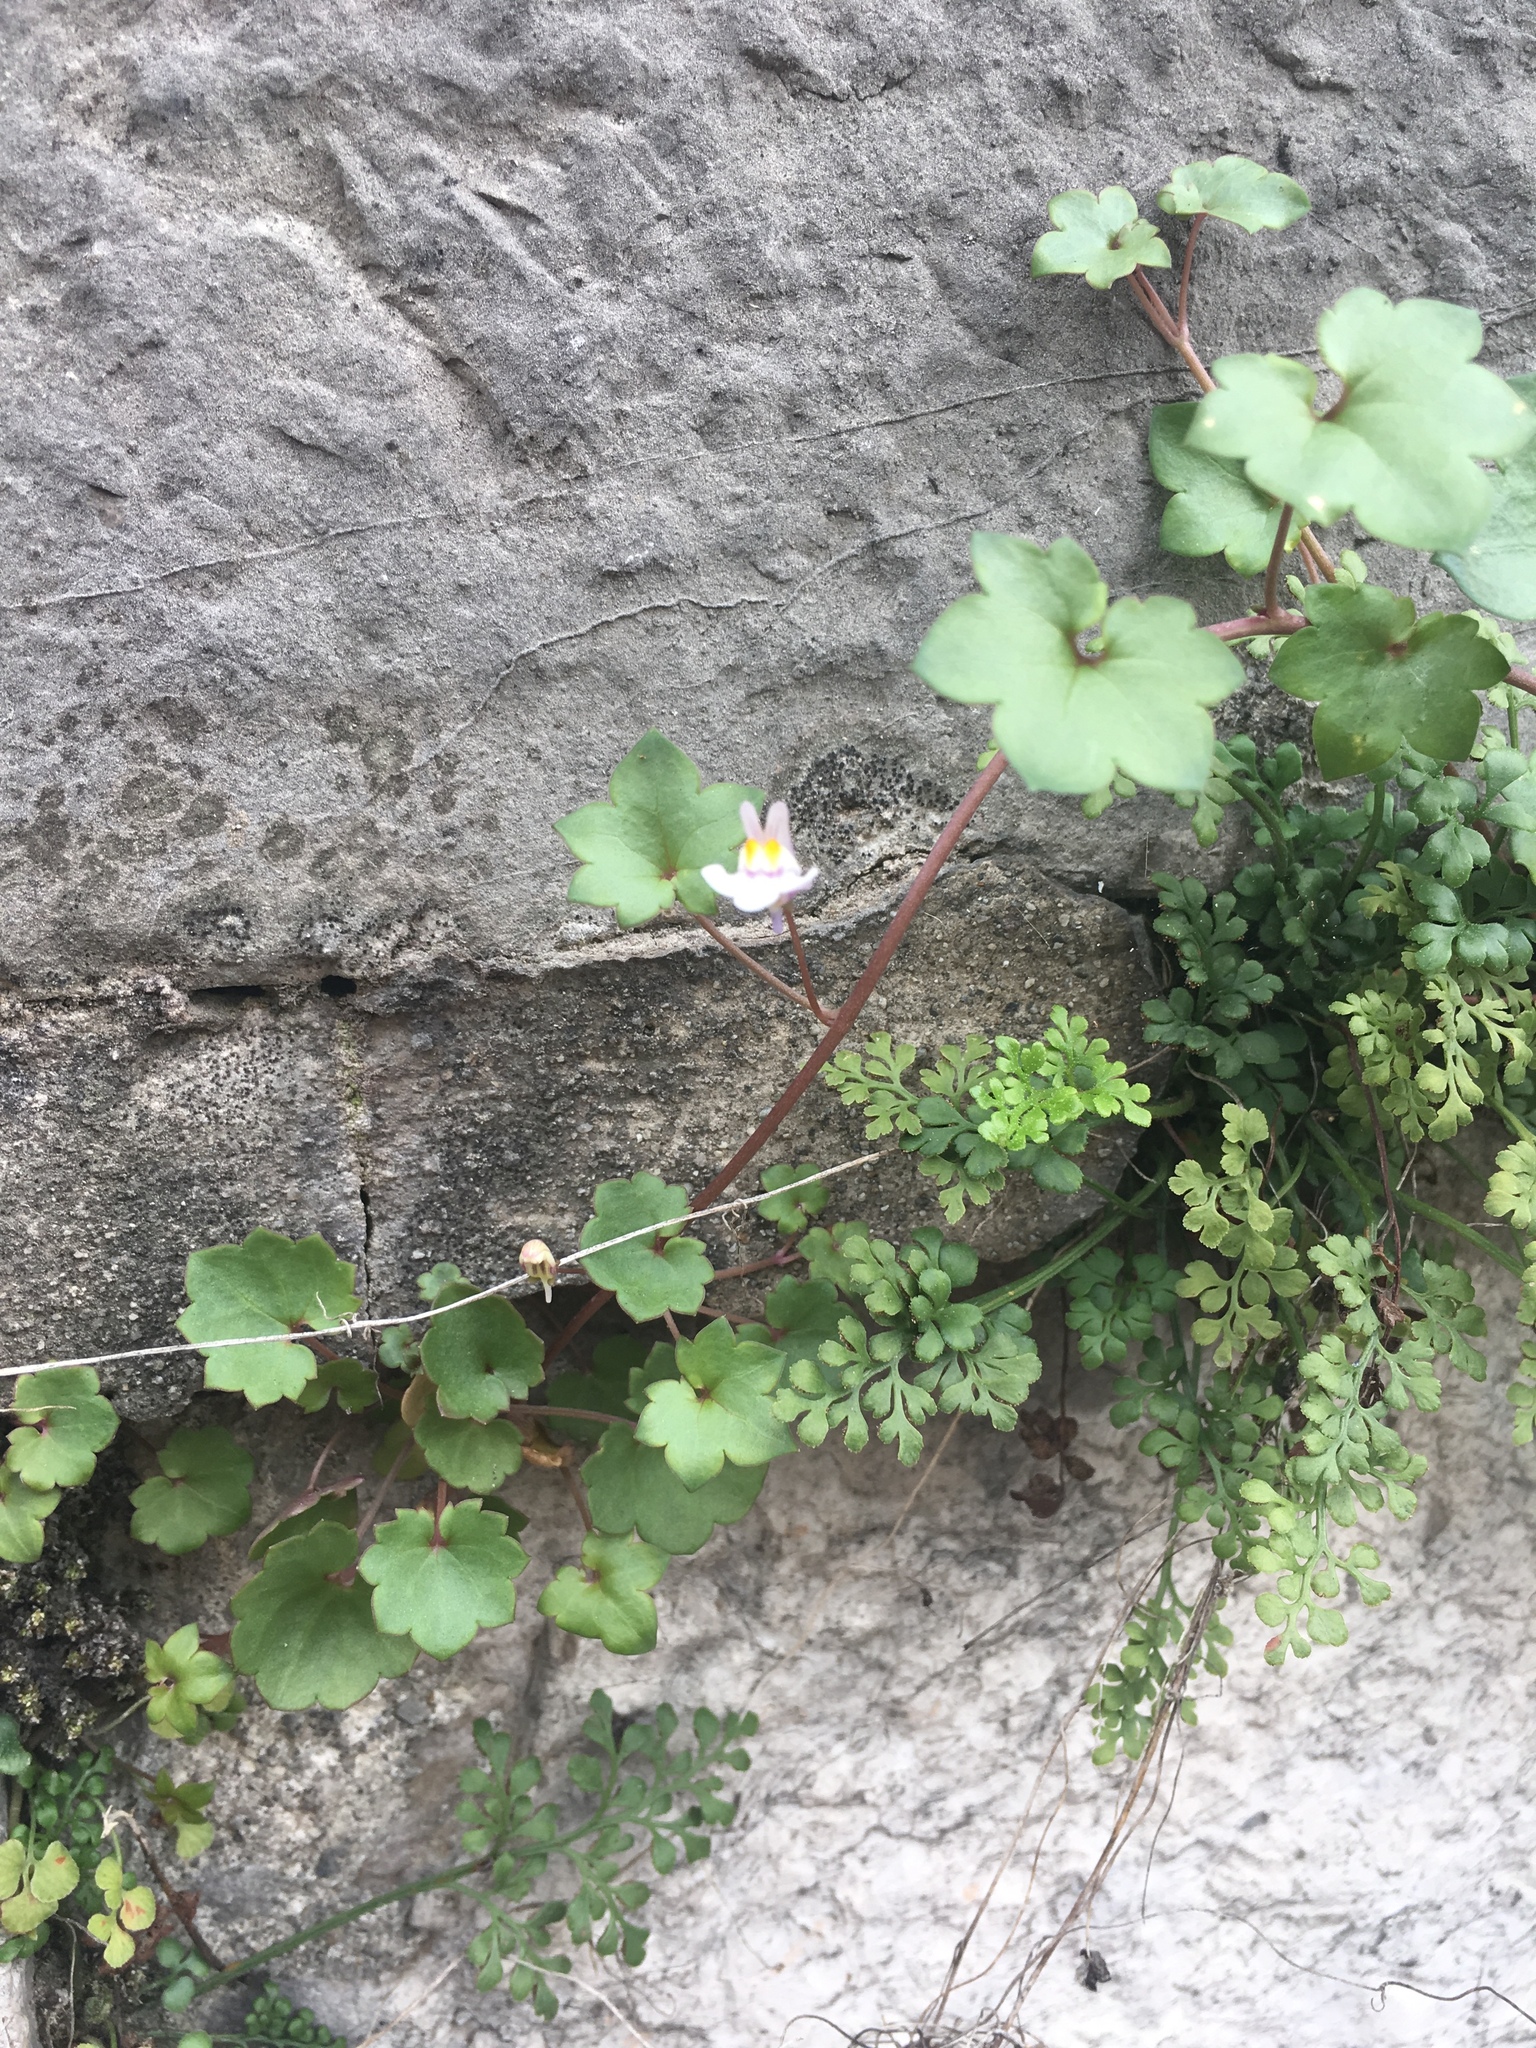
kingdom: Plantae
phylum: Tracheophyta
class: Magnoliopsida
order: Lamiales
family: Plantaginaceae
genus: Cymbalaria
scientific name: Cymbalaria muralis
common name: Ivy-leaved toadflax
